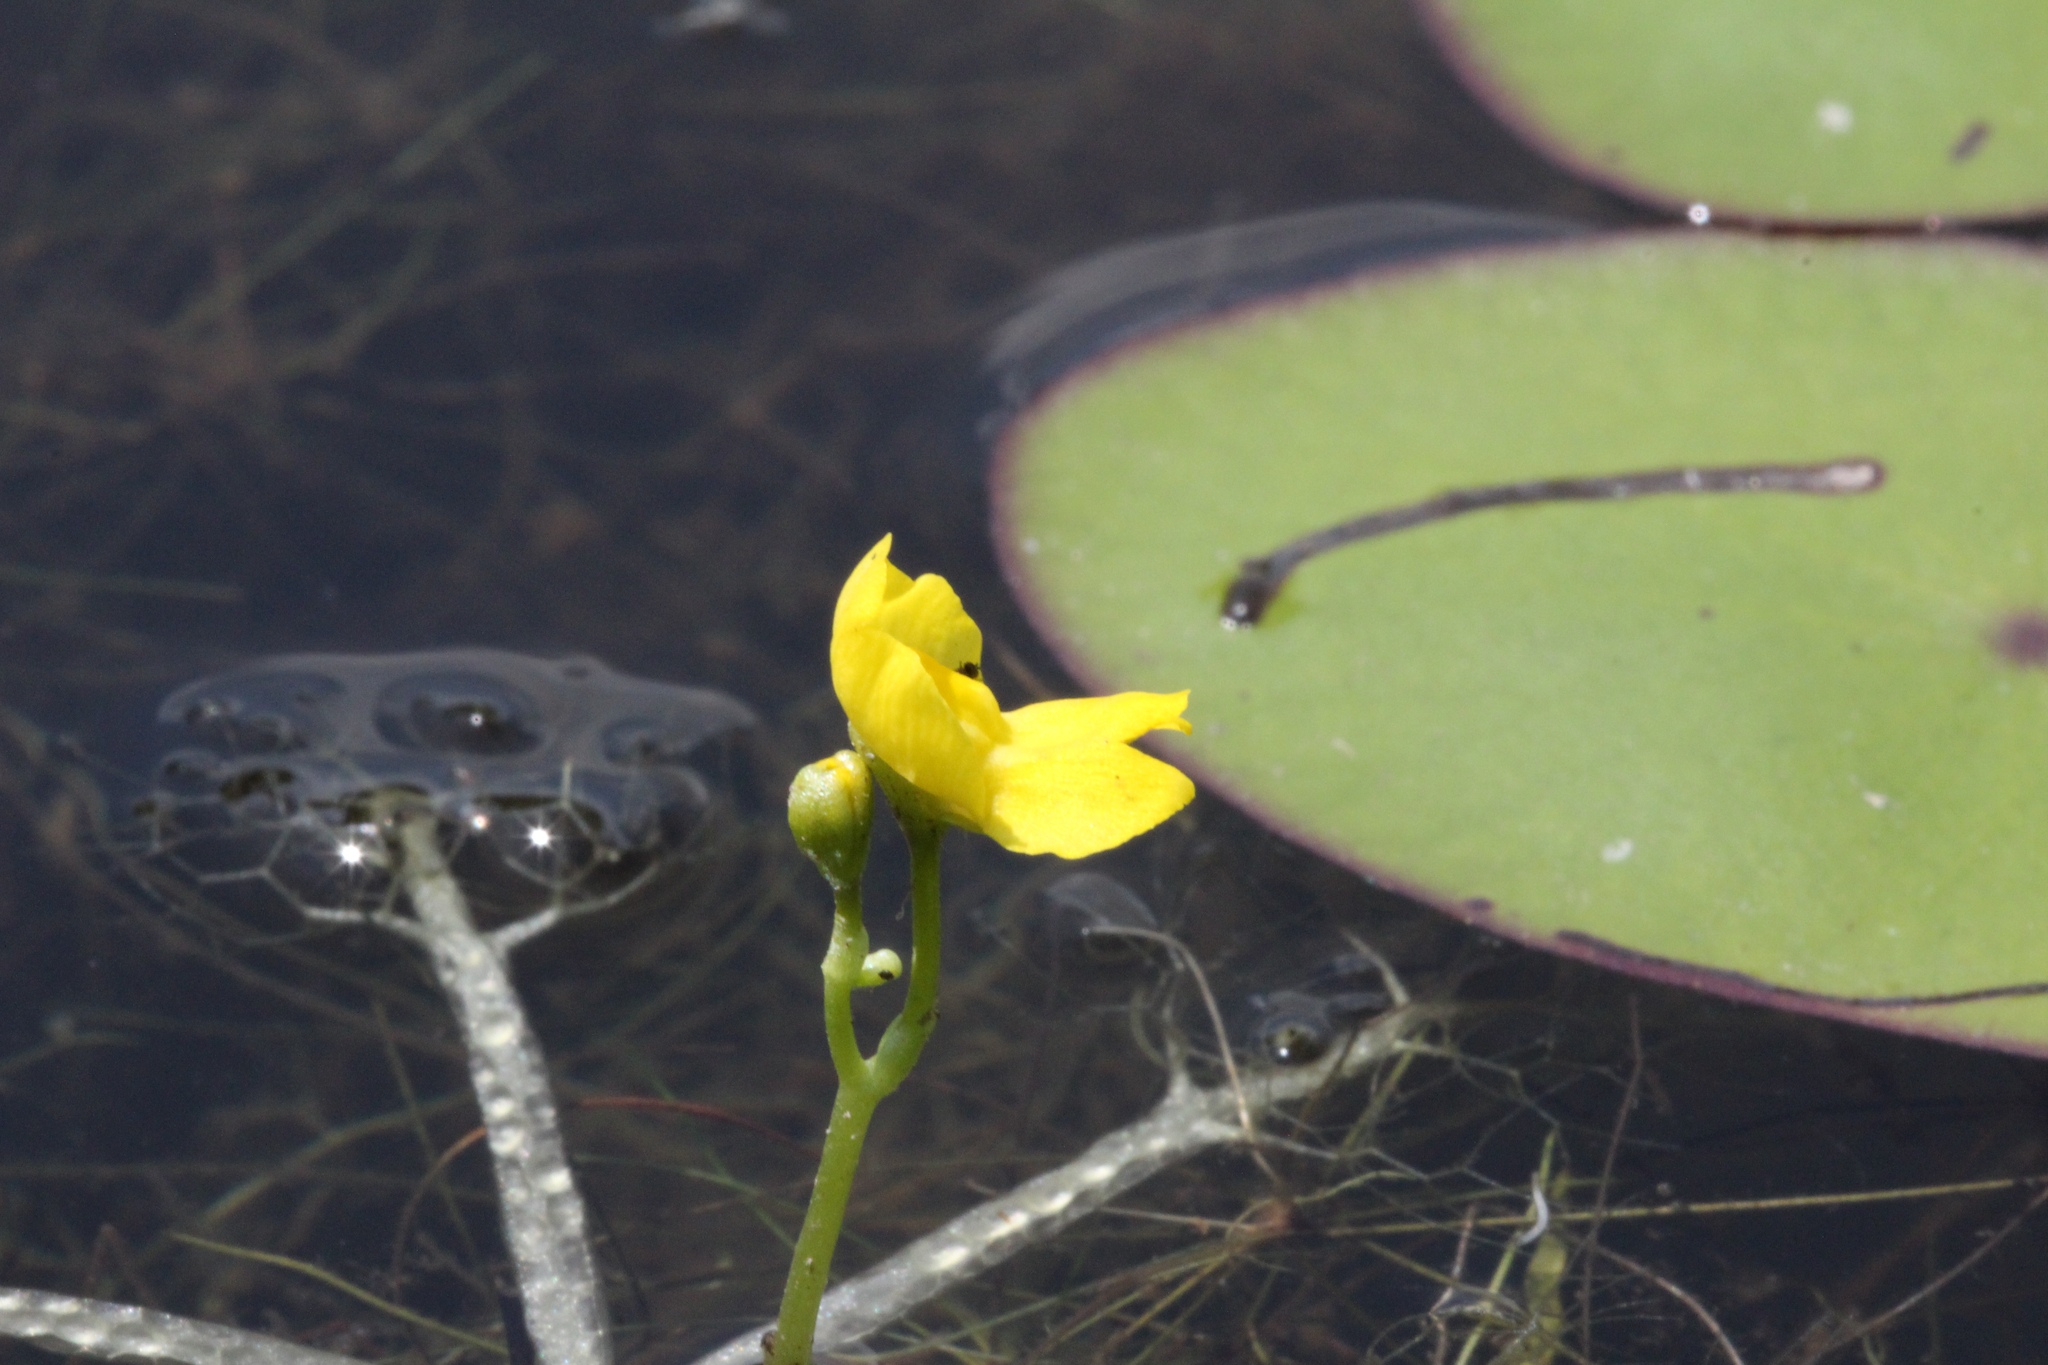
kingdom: Plantae
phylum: Tracheophyta
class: Magnoliopsida
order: Lamiales
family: Lentibulariaceae
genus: Utricularia
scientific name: Utricularia radiata
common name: Floating bladderwort
